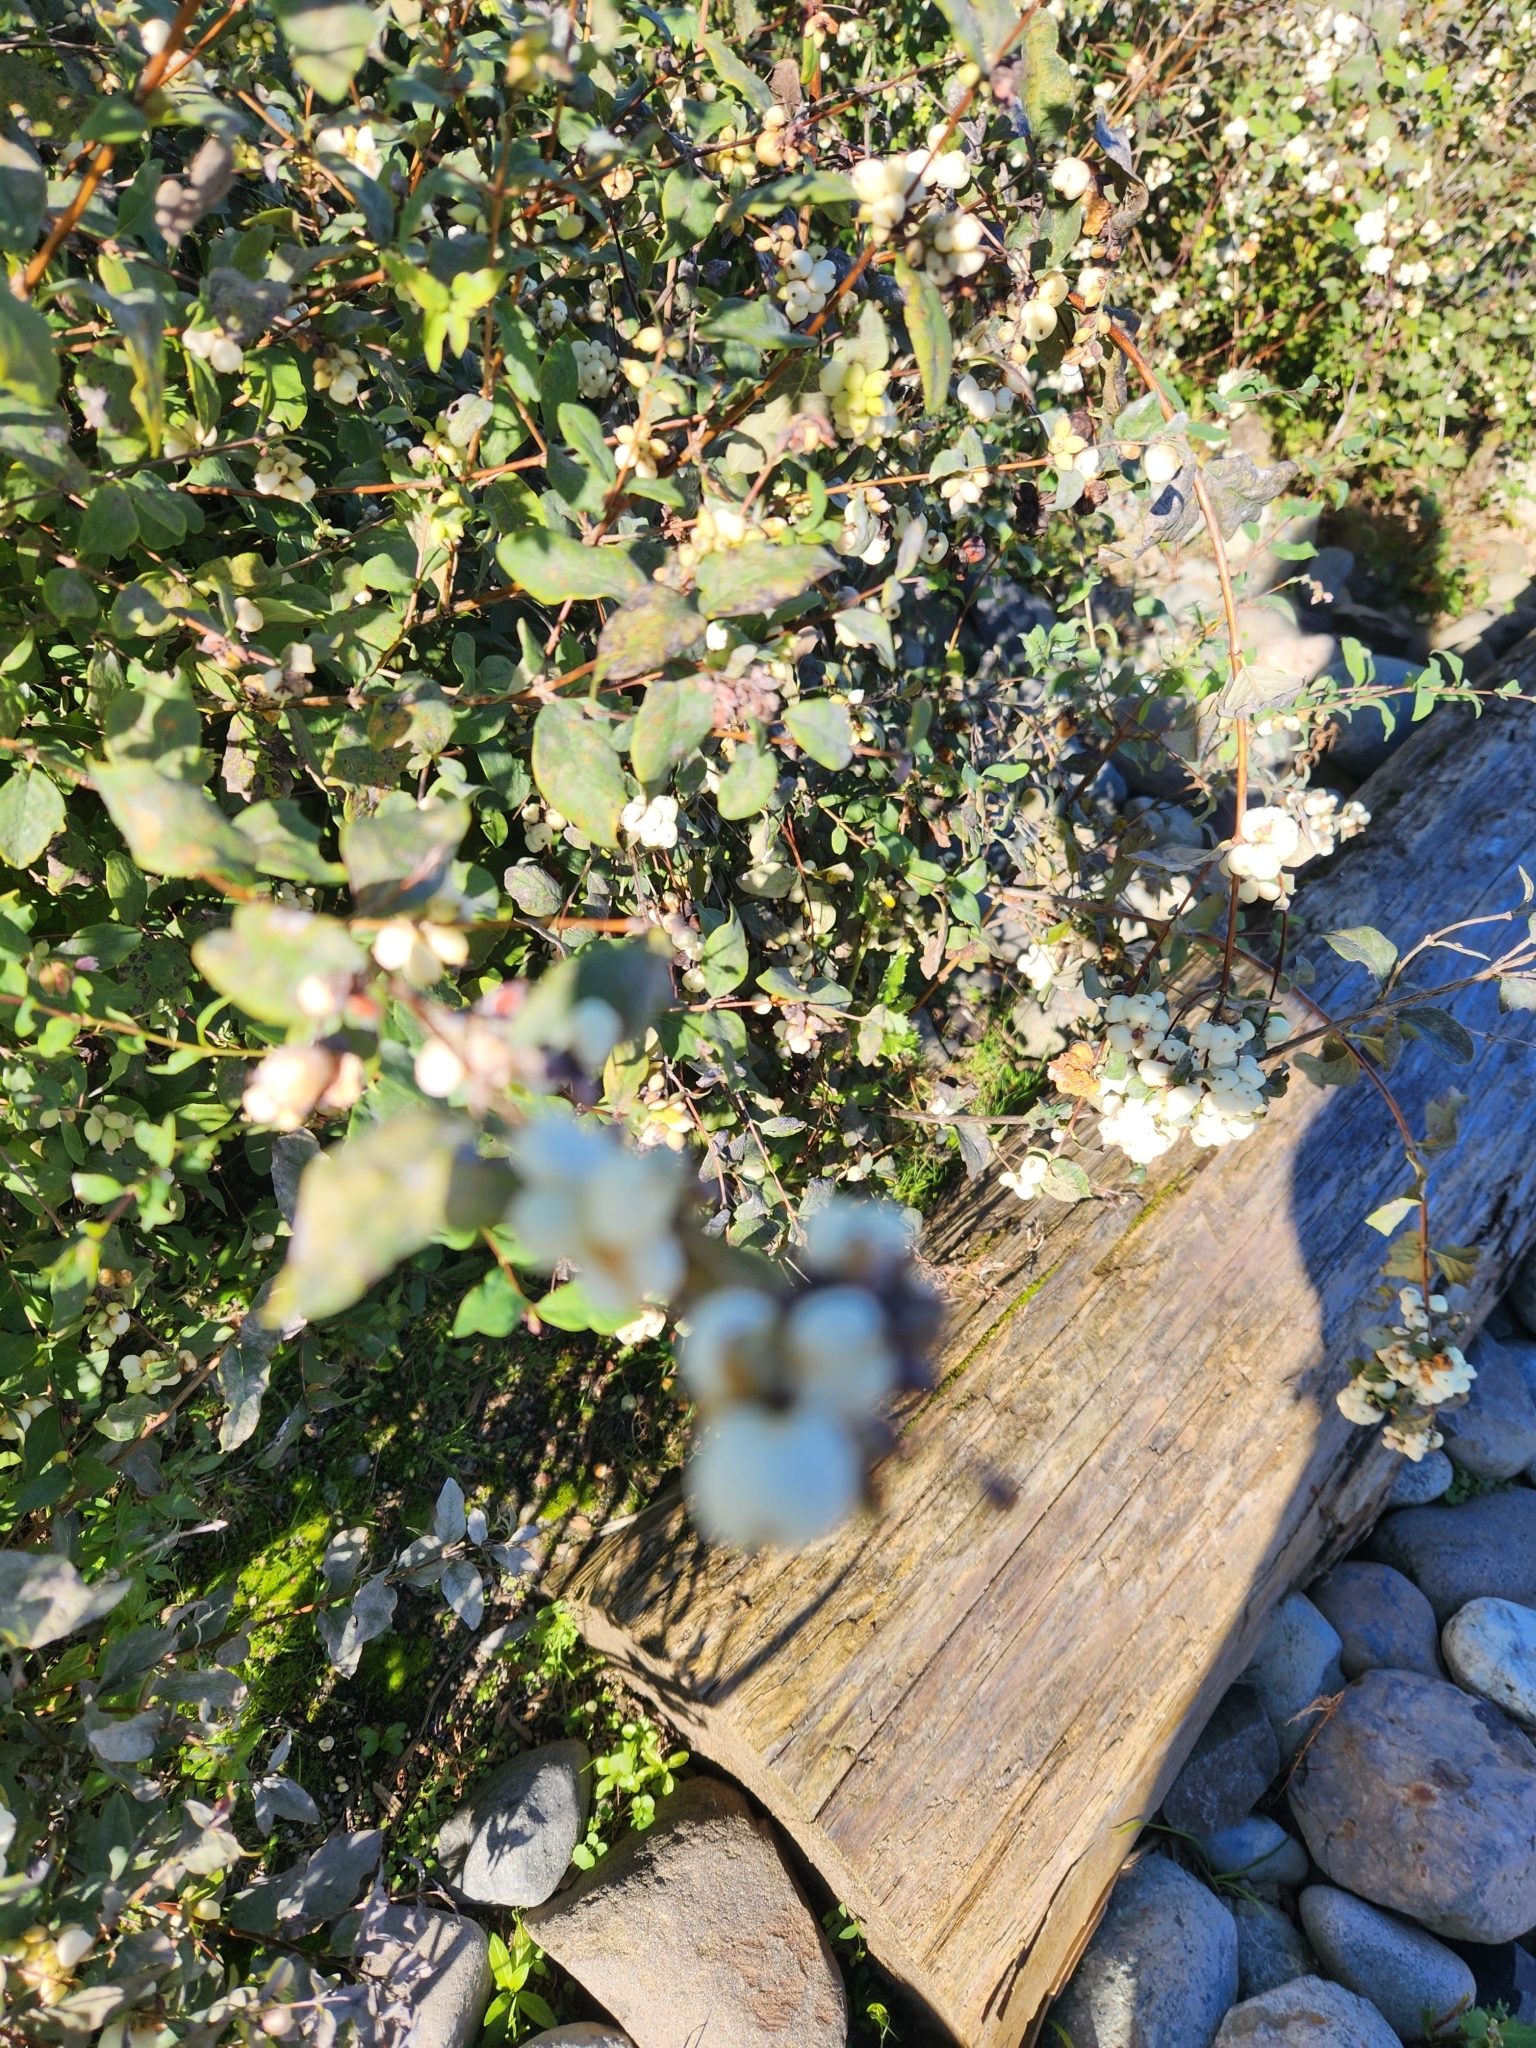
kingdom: Plantae
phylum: Tracheophyta
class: Magnoliopsida
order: Dipsacales
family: Caprifoliaceae
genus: Symphoricarpos
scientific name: Symphoricarpos albus
